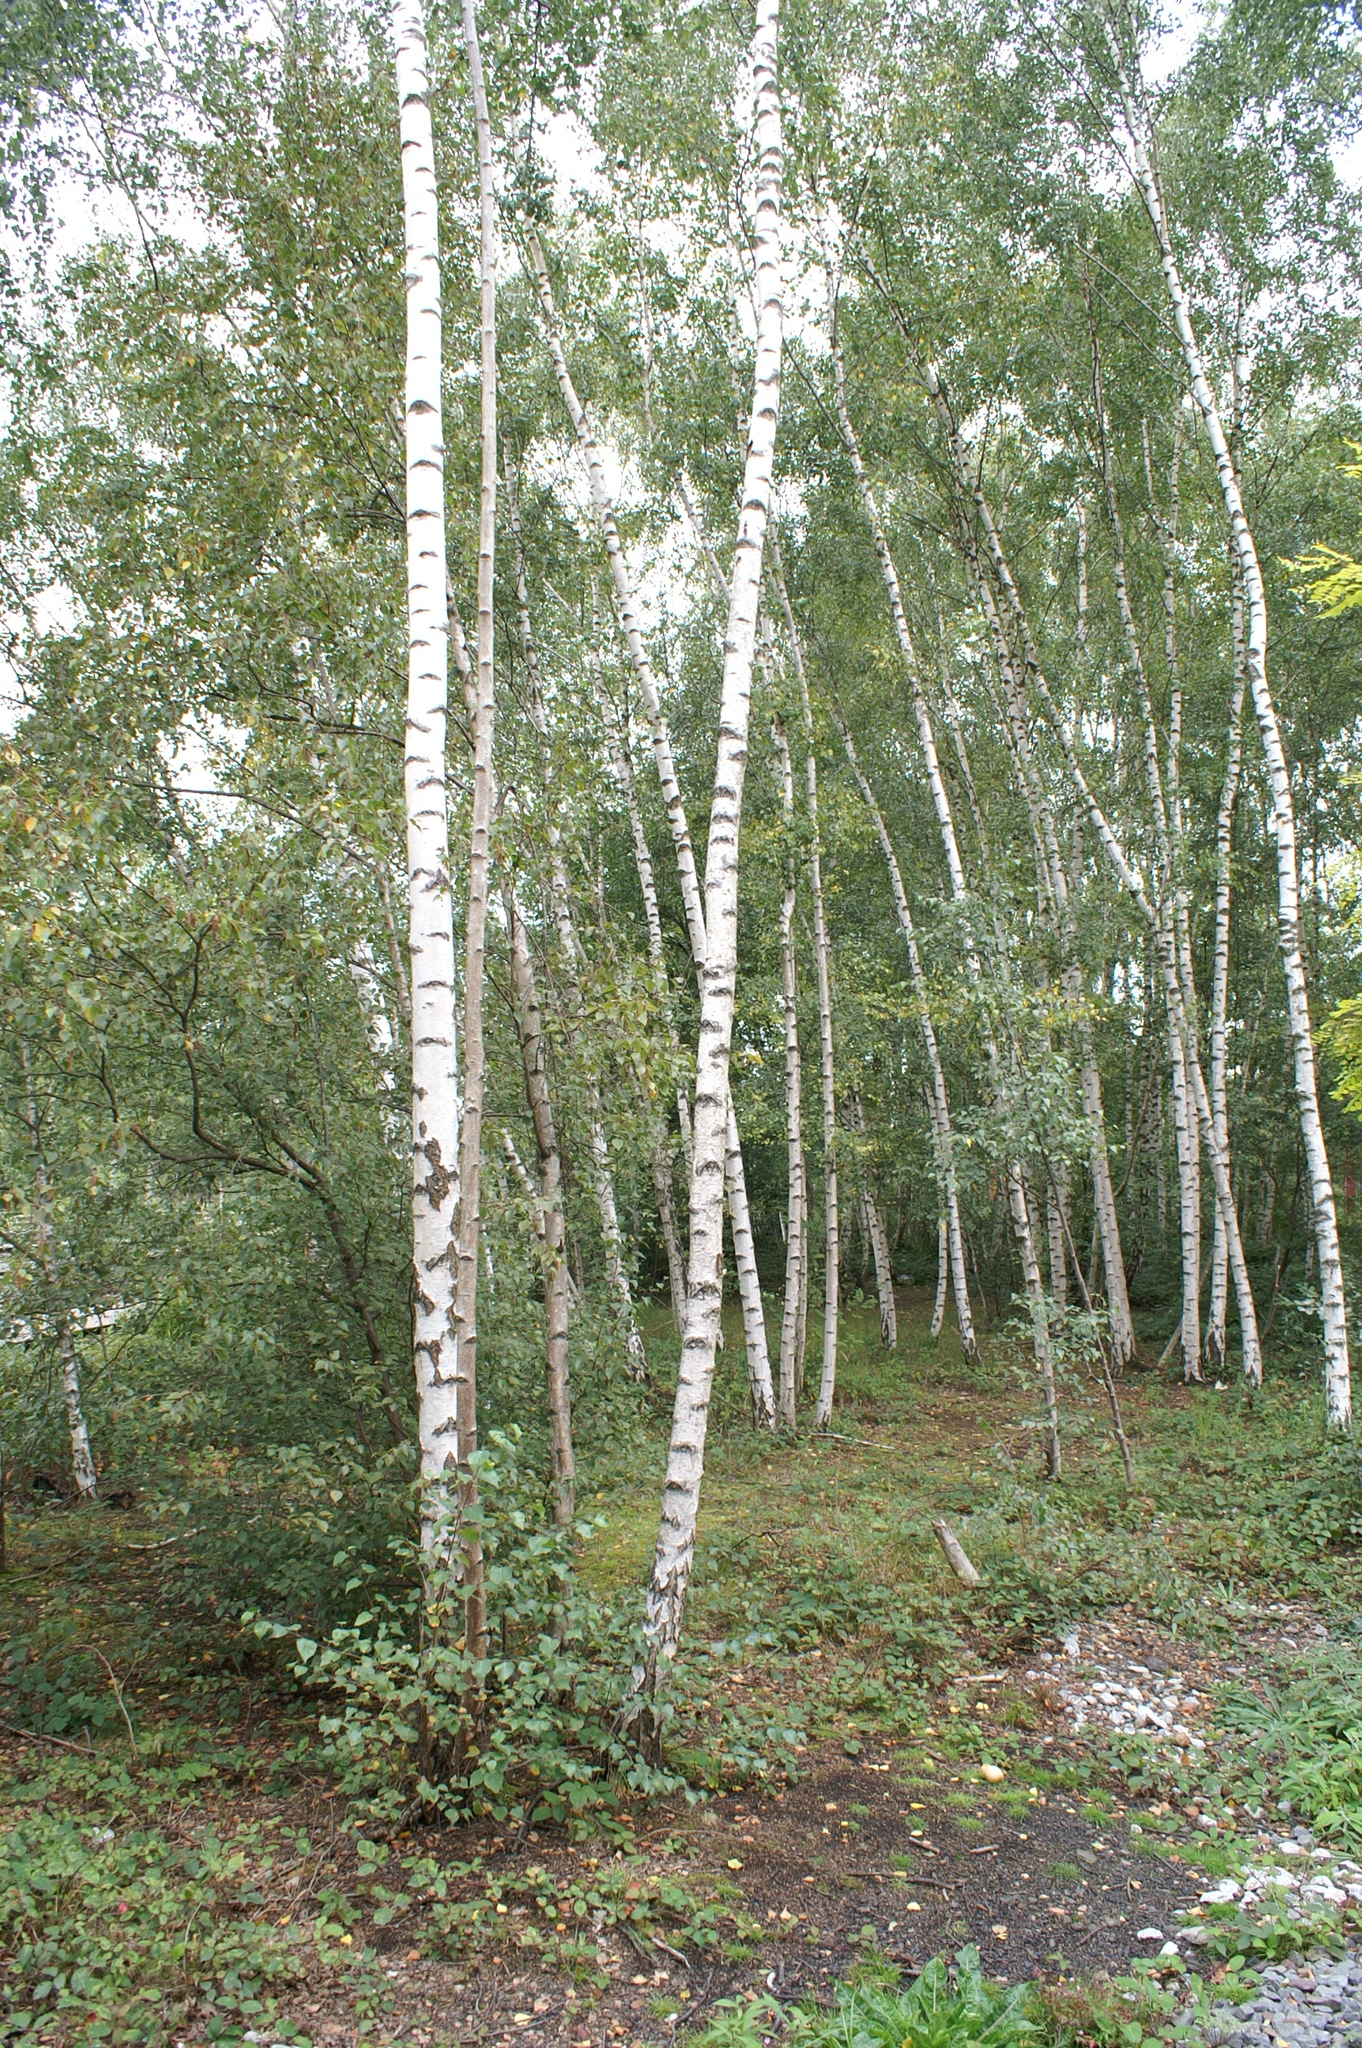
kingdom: Plantae
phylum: Tracheophyta
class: Magnoliopsida
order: Fagales
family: Betulaceae
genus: Betula
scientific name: Betula pendula
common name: Silver birch
